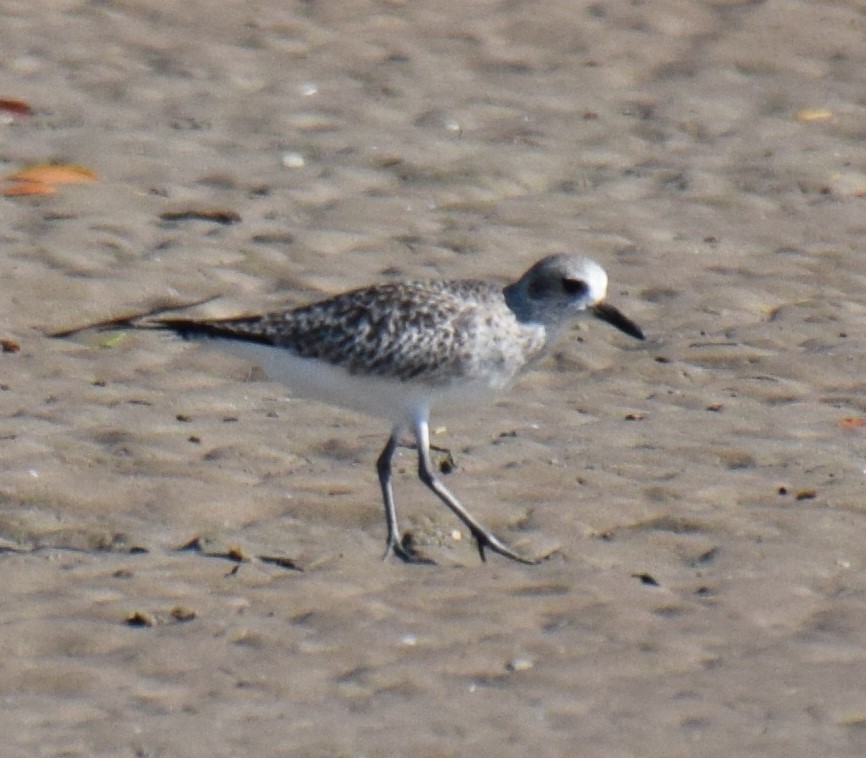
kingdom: Animalia
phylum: Chordata
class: Aves
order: Charadriiformes
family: Charadriidae
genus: Pluvialis
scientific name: Pluvialis squatarola
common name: Grey plover
